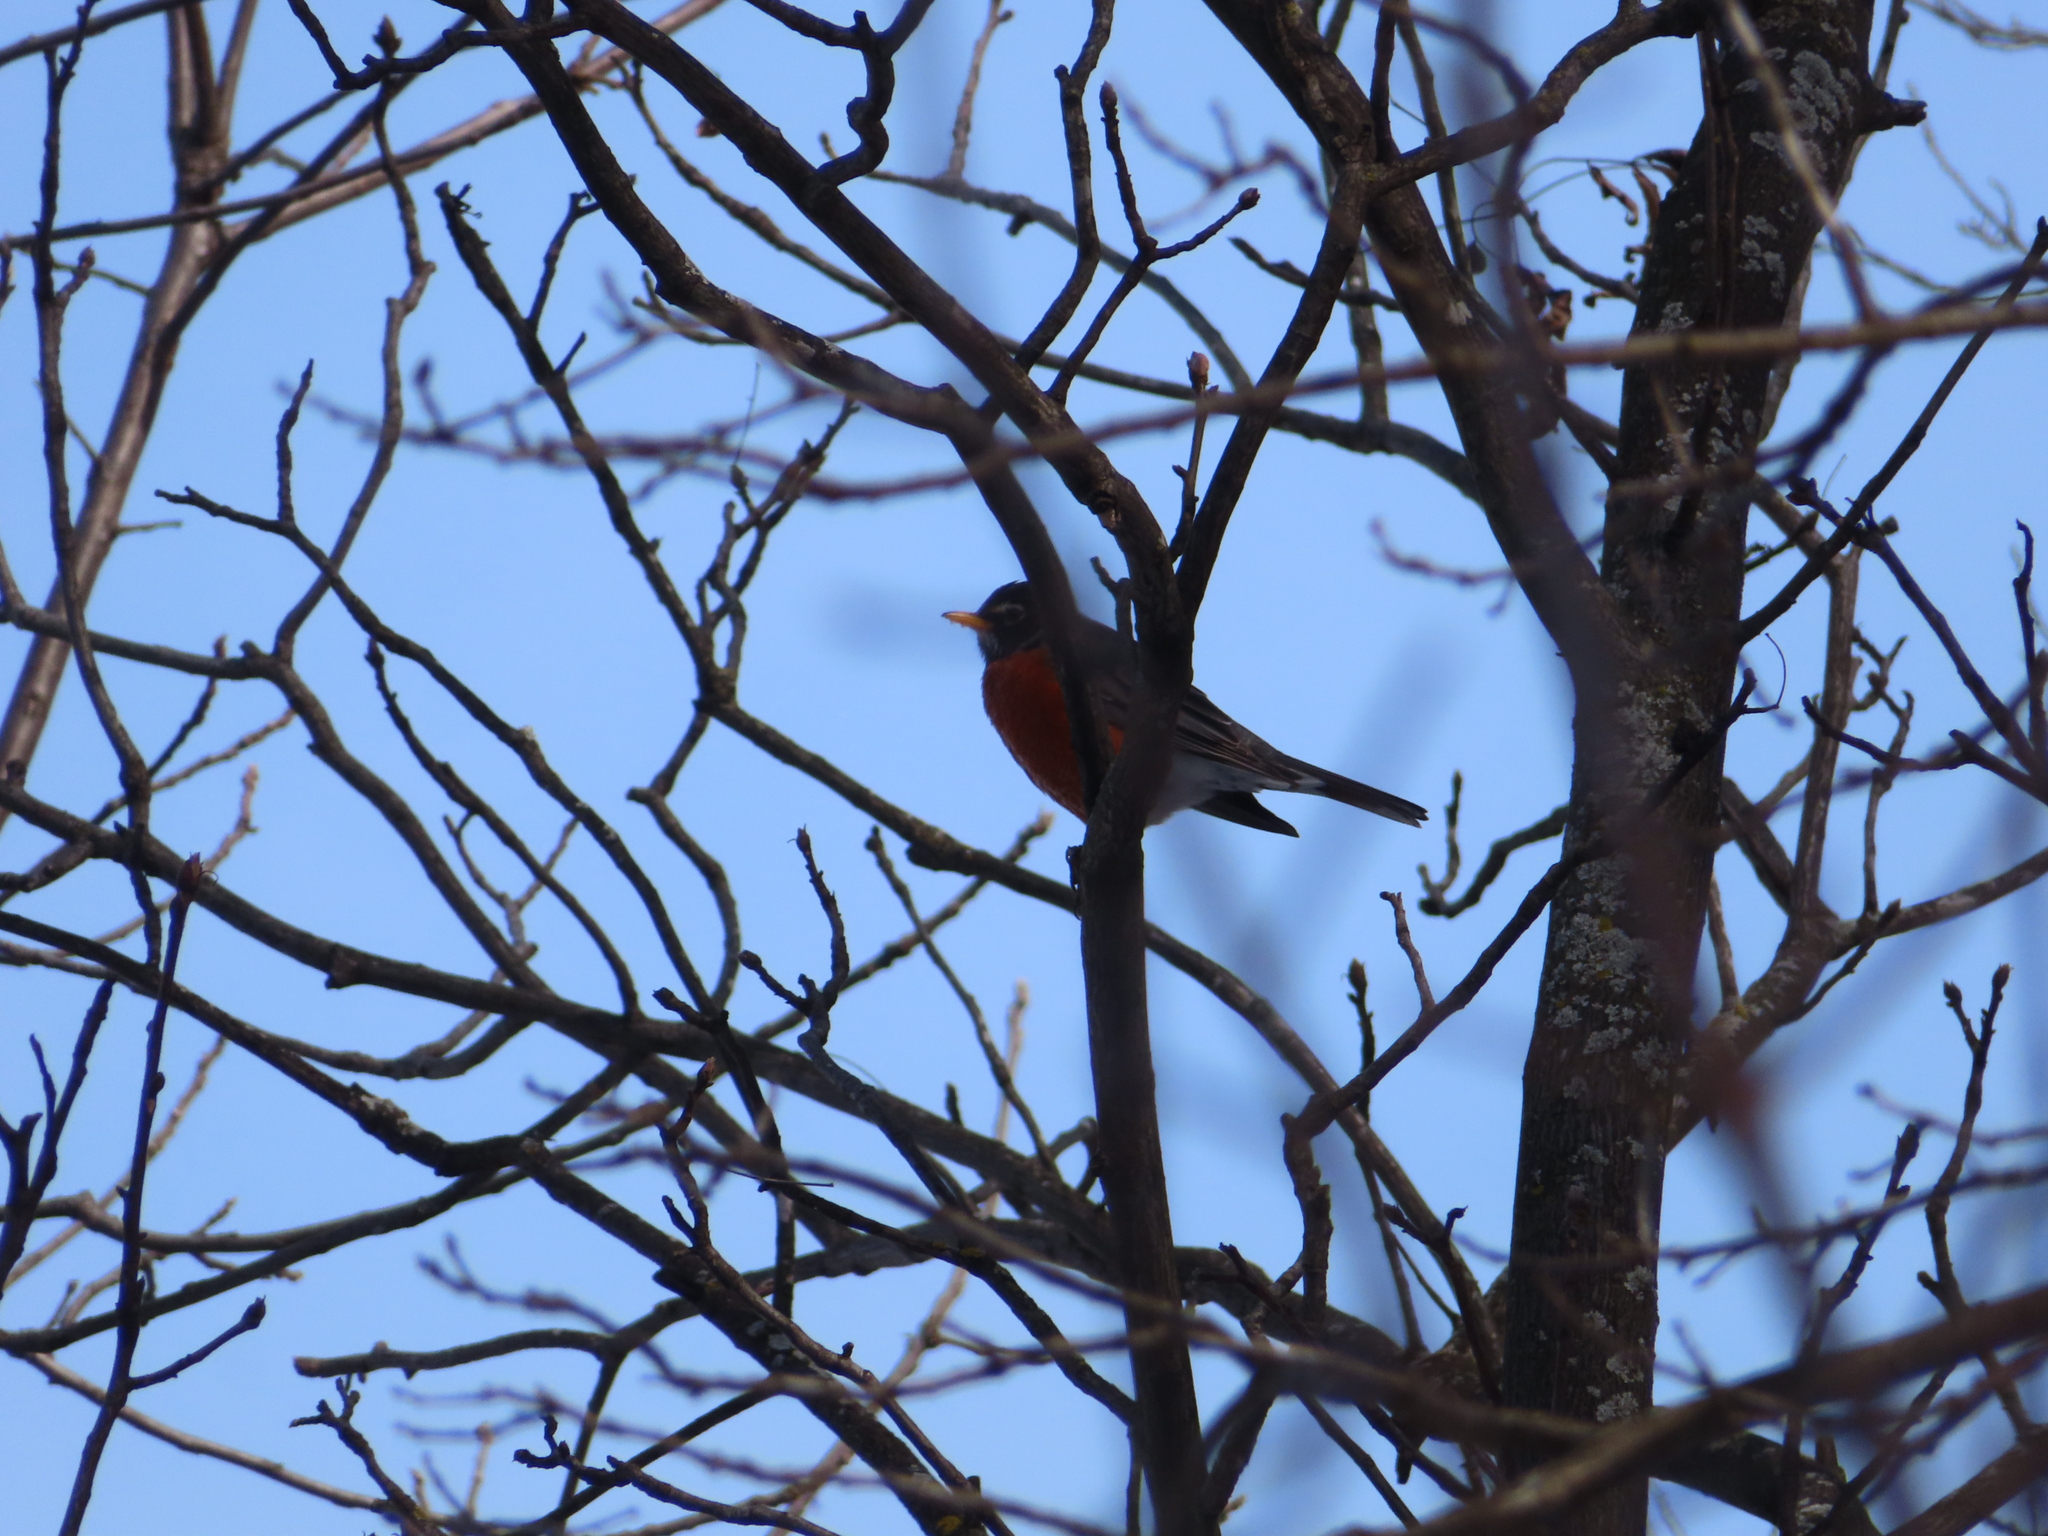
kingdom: Animalia
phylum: Chordata
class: Aves
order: Passeriformes
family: Turdidae
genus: Turdus
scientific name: Turdus migratorius
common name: American robin
